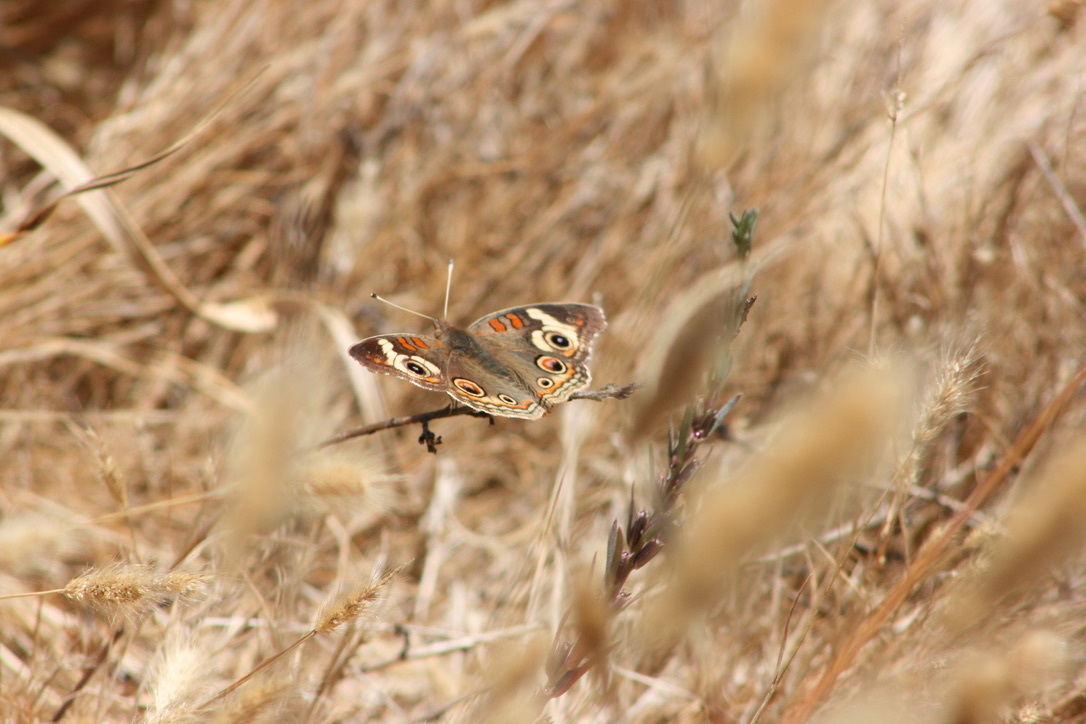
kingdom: Animalia
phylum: Arthropoda
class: Insecta
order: Lepidoptera
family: Nymphalidae
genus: Junonia
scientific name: Junonia grisea
